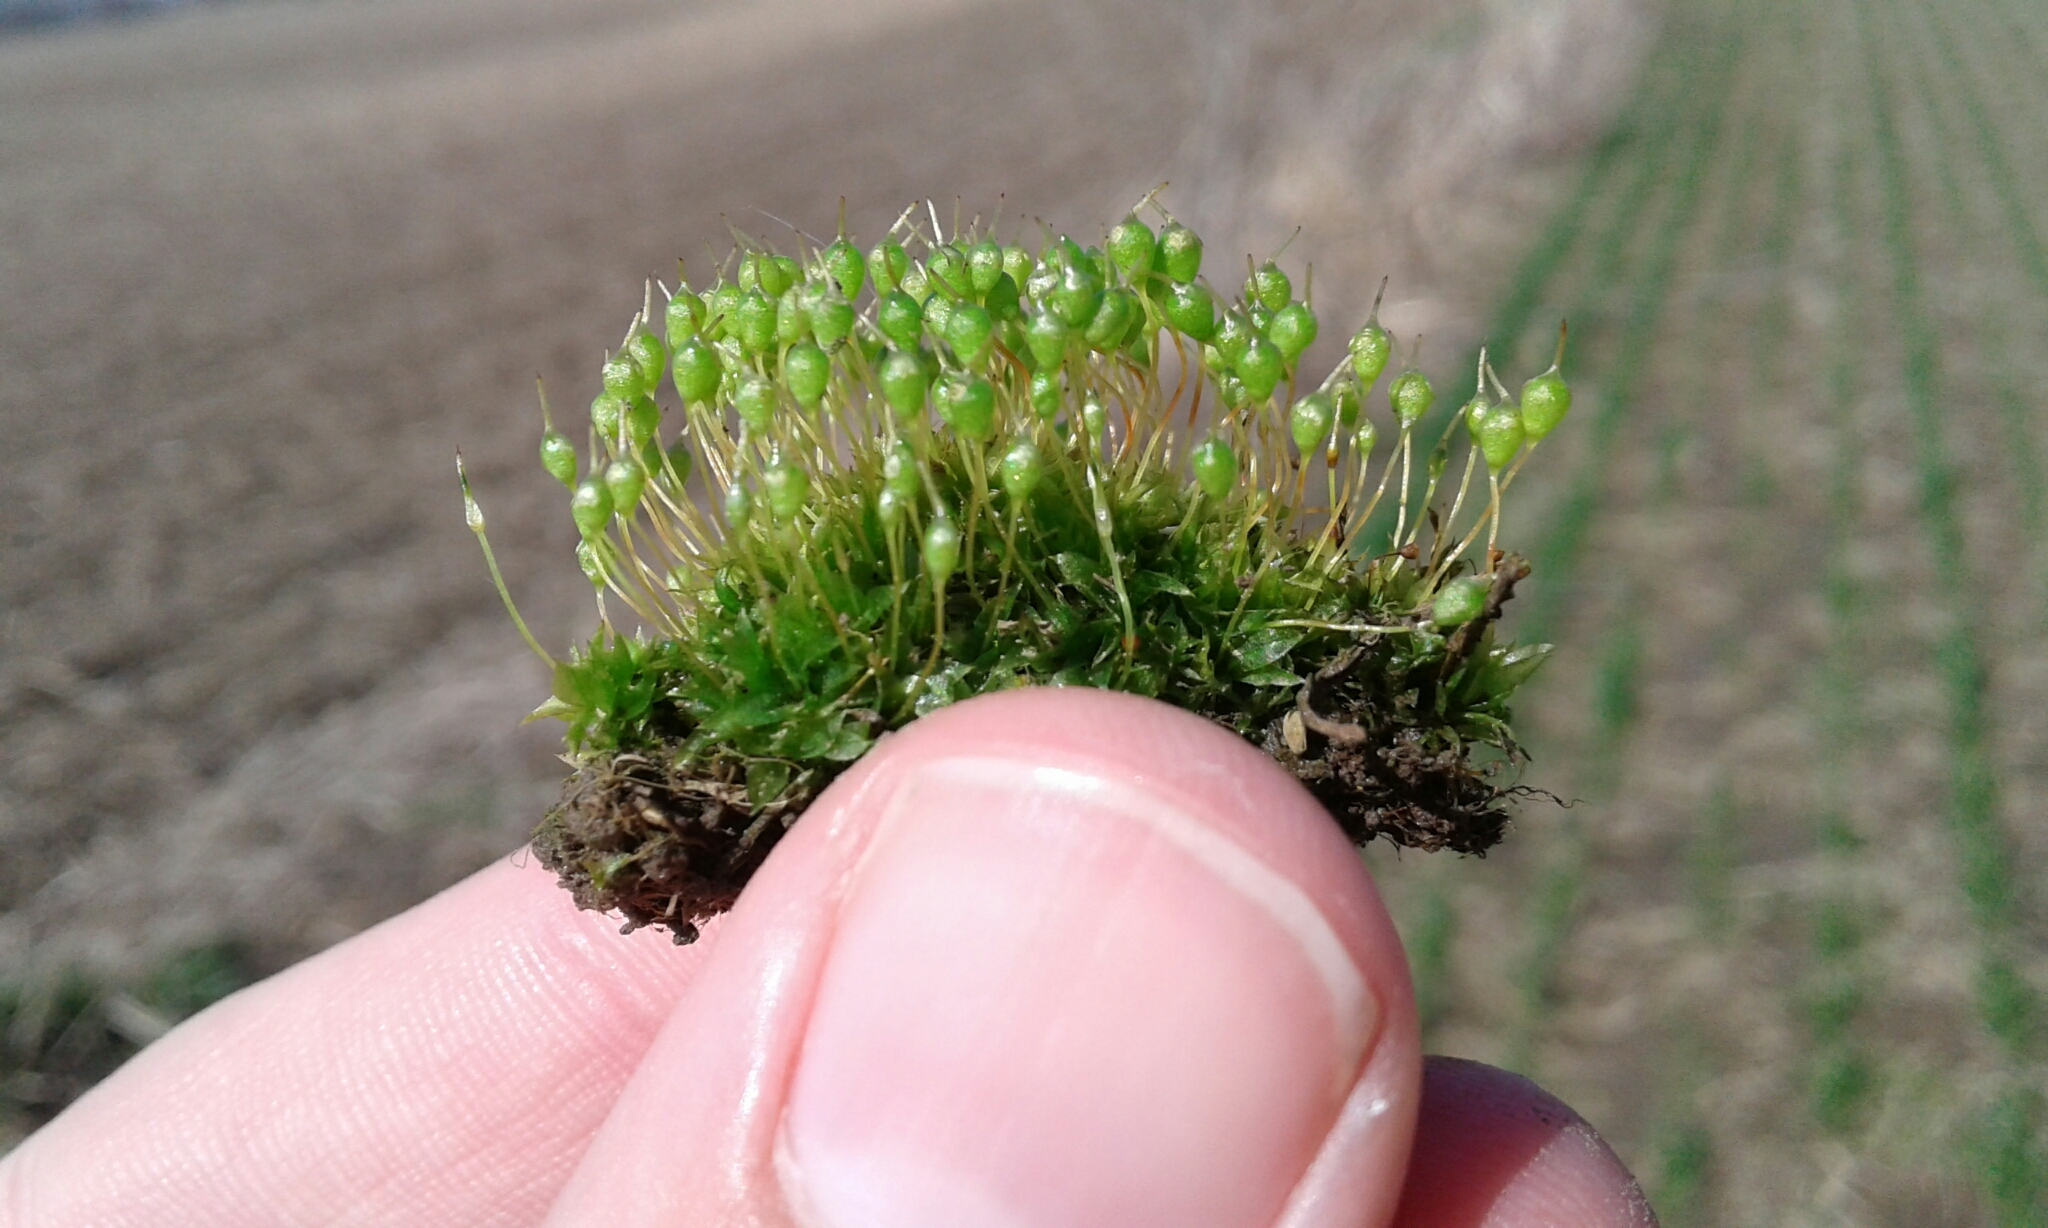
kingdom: Plantae
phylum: Bryophyta
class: Bryopsida
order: Funariales
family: Funariaceae
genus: Physcomitrium
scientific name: Physcomitrium pyriforme
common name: Common bladder-moss
